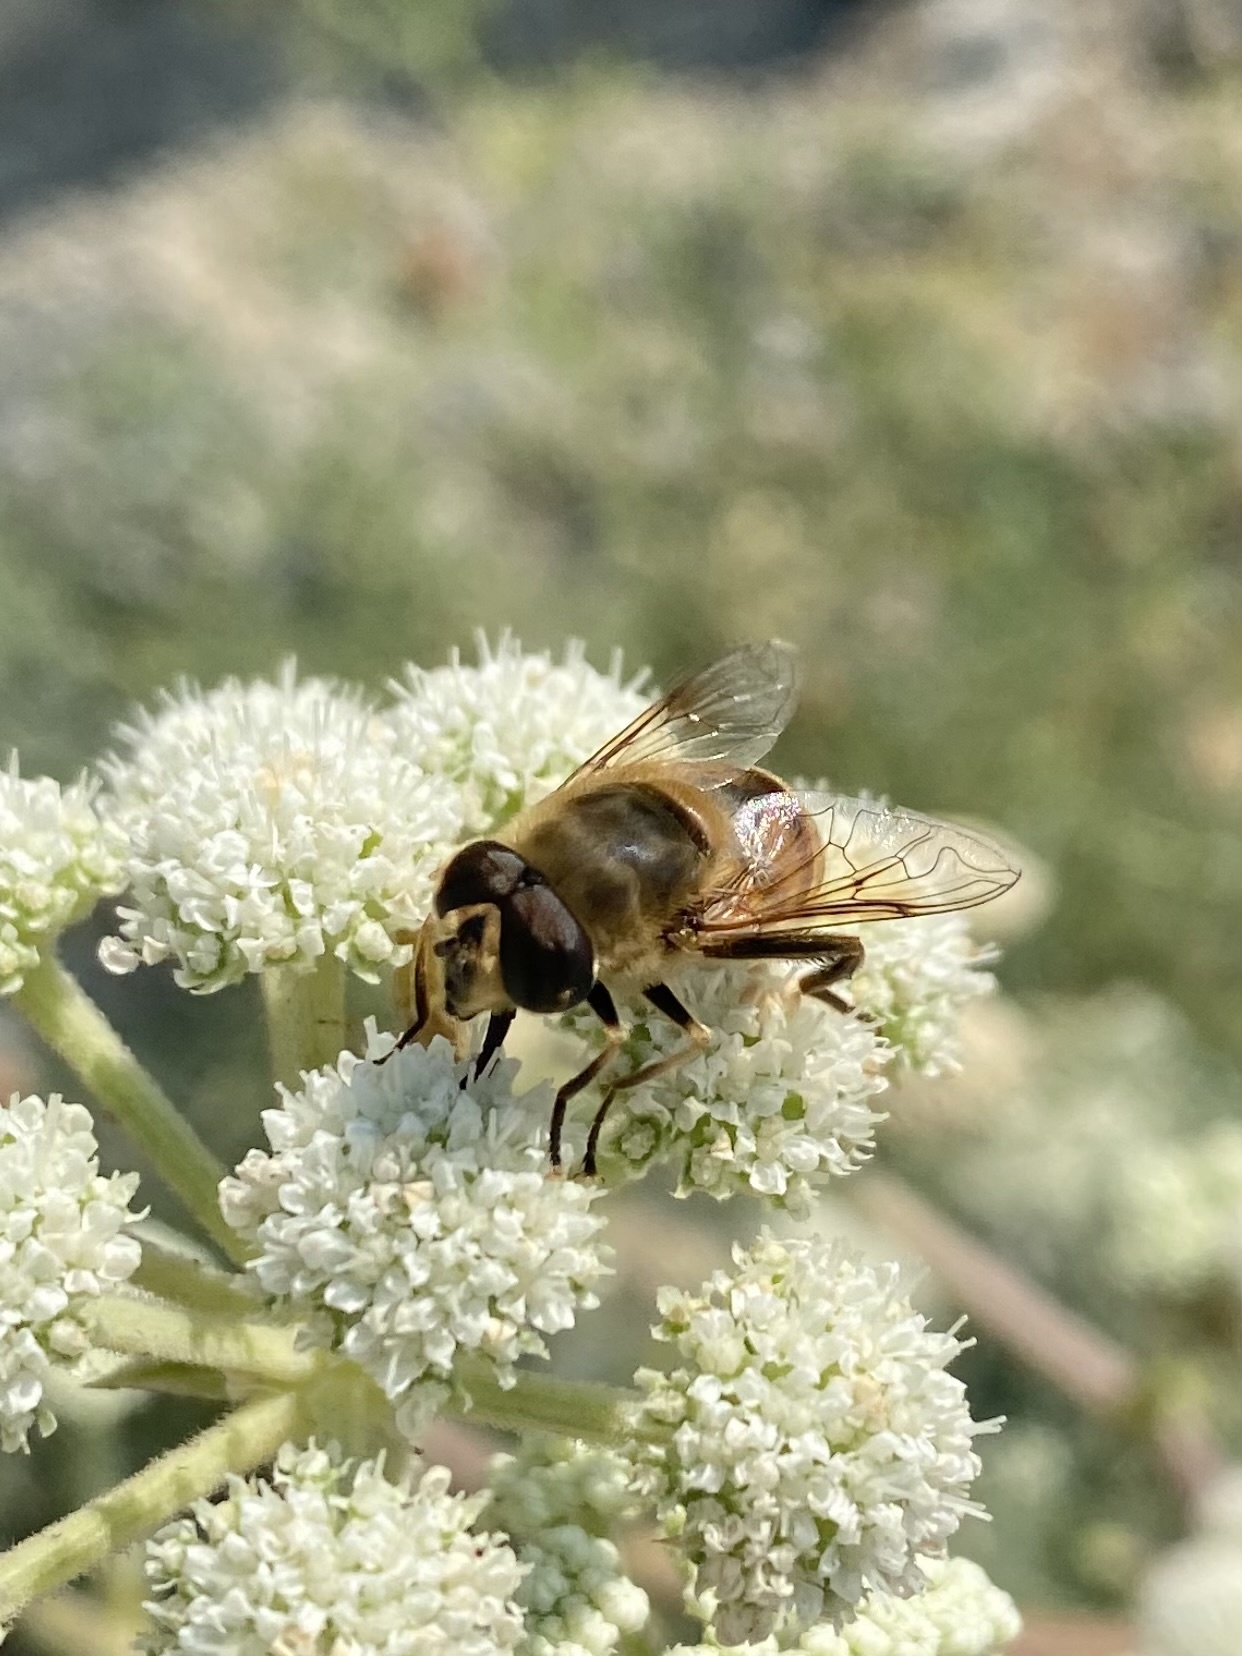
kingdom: Animalia
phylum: Arthropoda
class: Insecta
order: Diptera
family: Syrphidae
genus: Eristalis
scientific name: Eristalis tenax
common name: Drone fly
